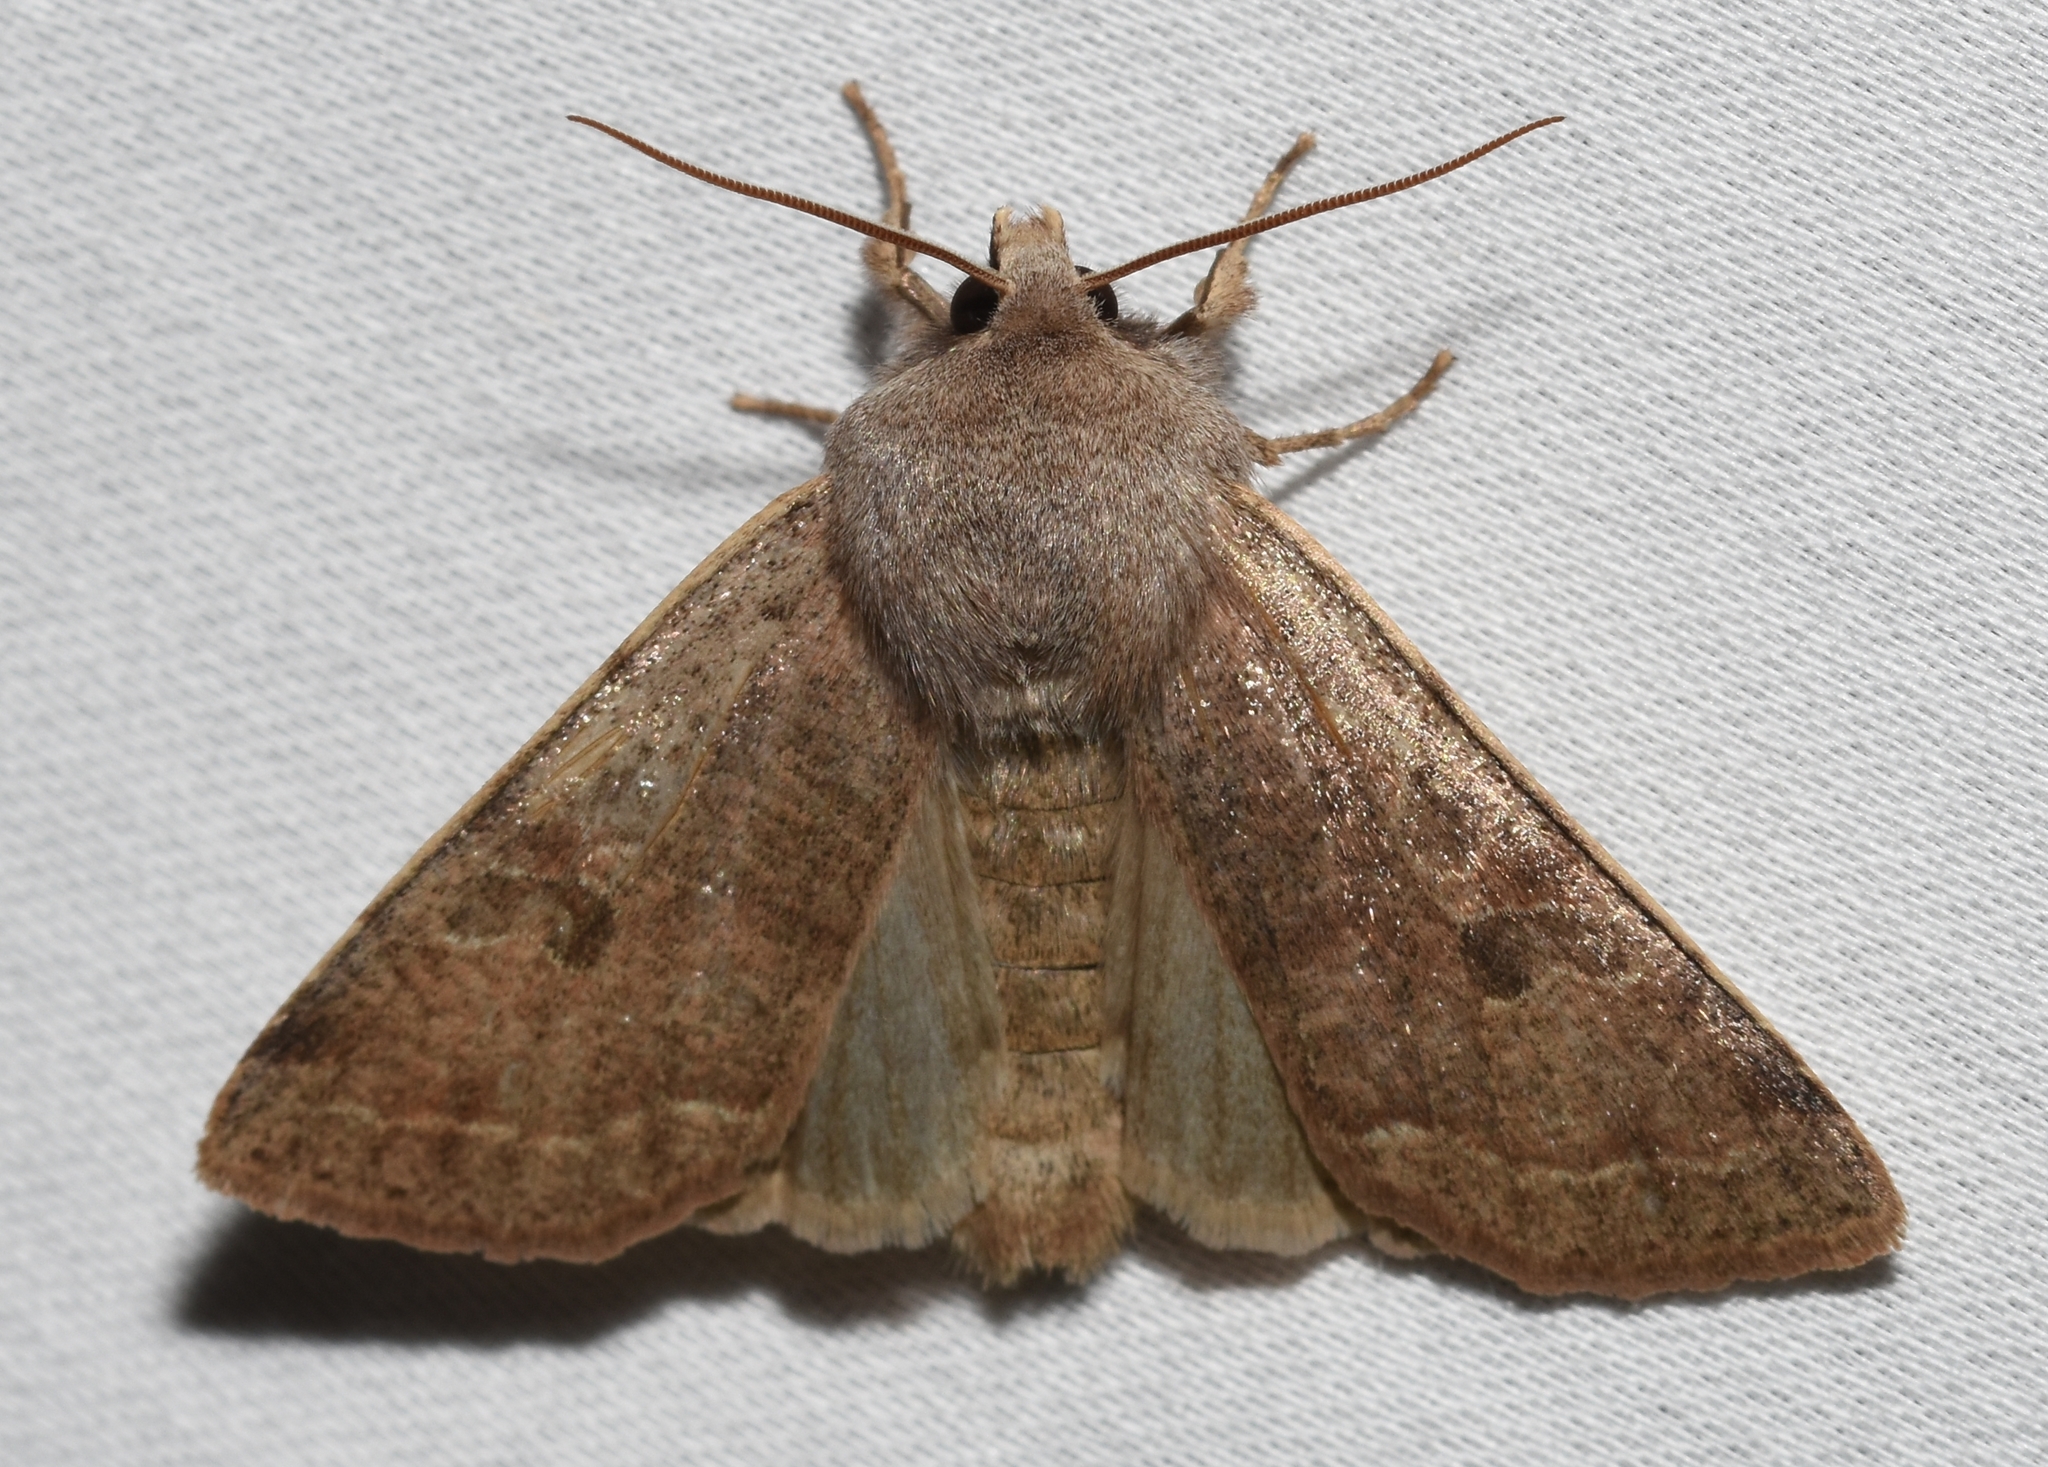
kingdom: Animalia
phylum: Arthropoda
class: Insecta
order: Lepidoptera
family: Noctuidae
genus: Orthosia
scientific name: Orthosia hibisci
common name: Green fruitworm
